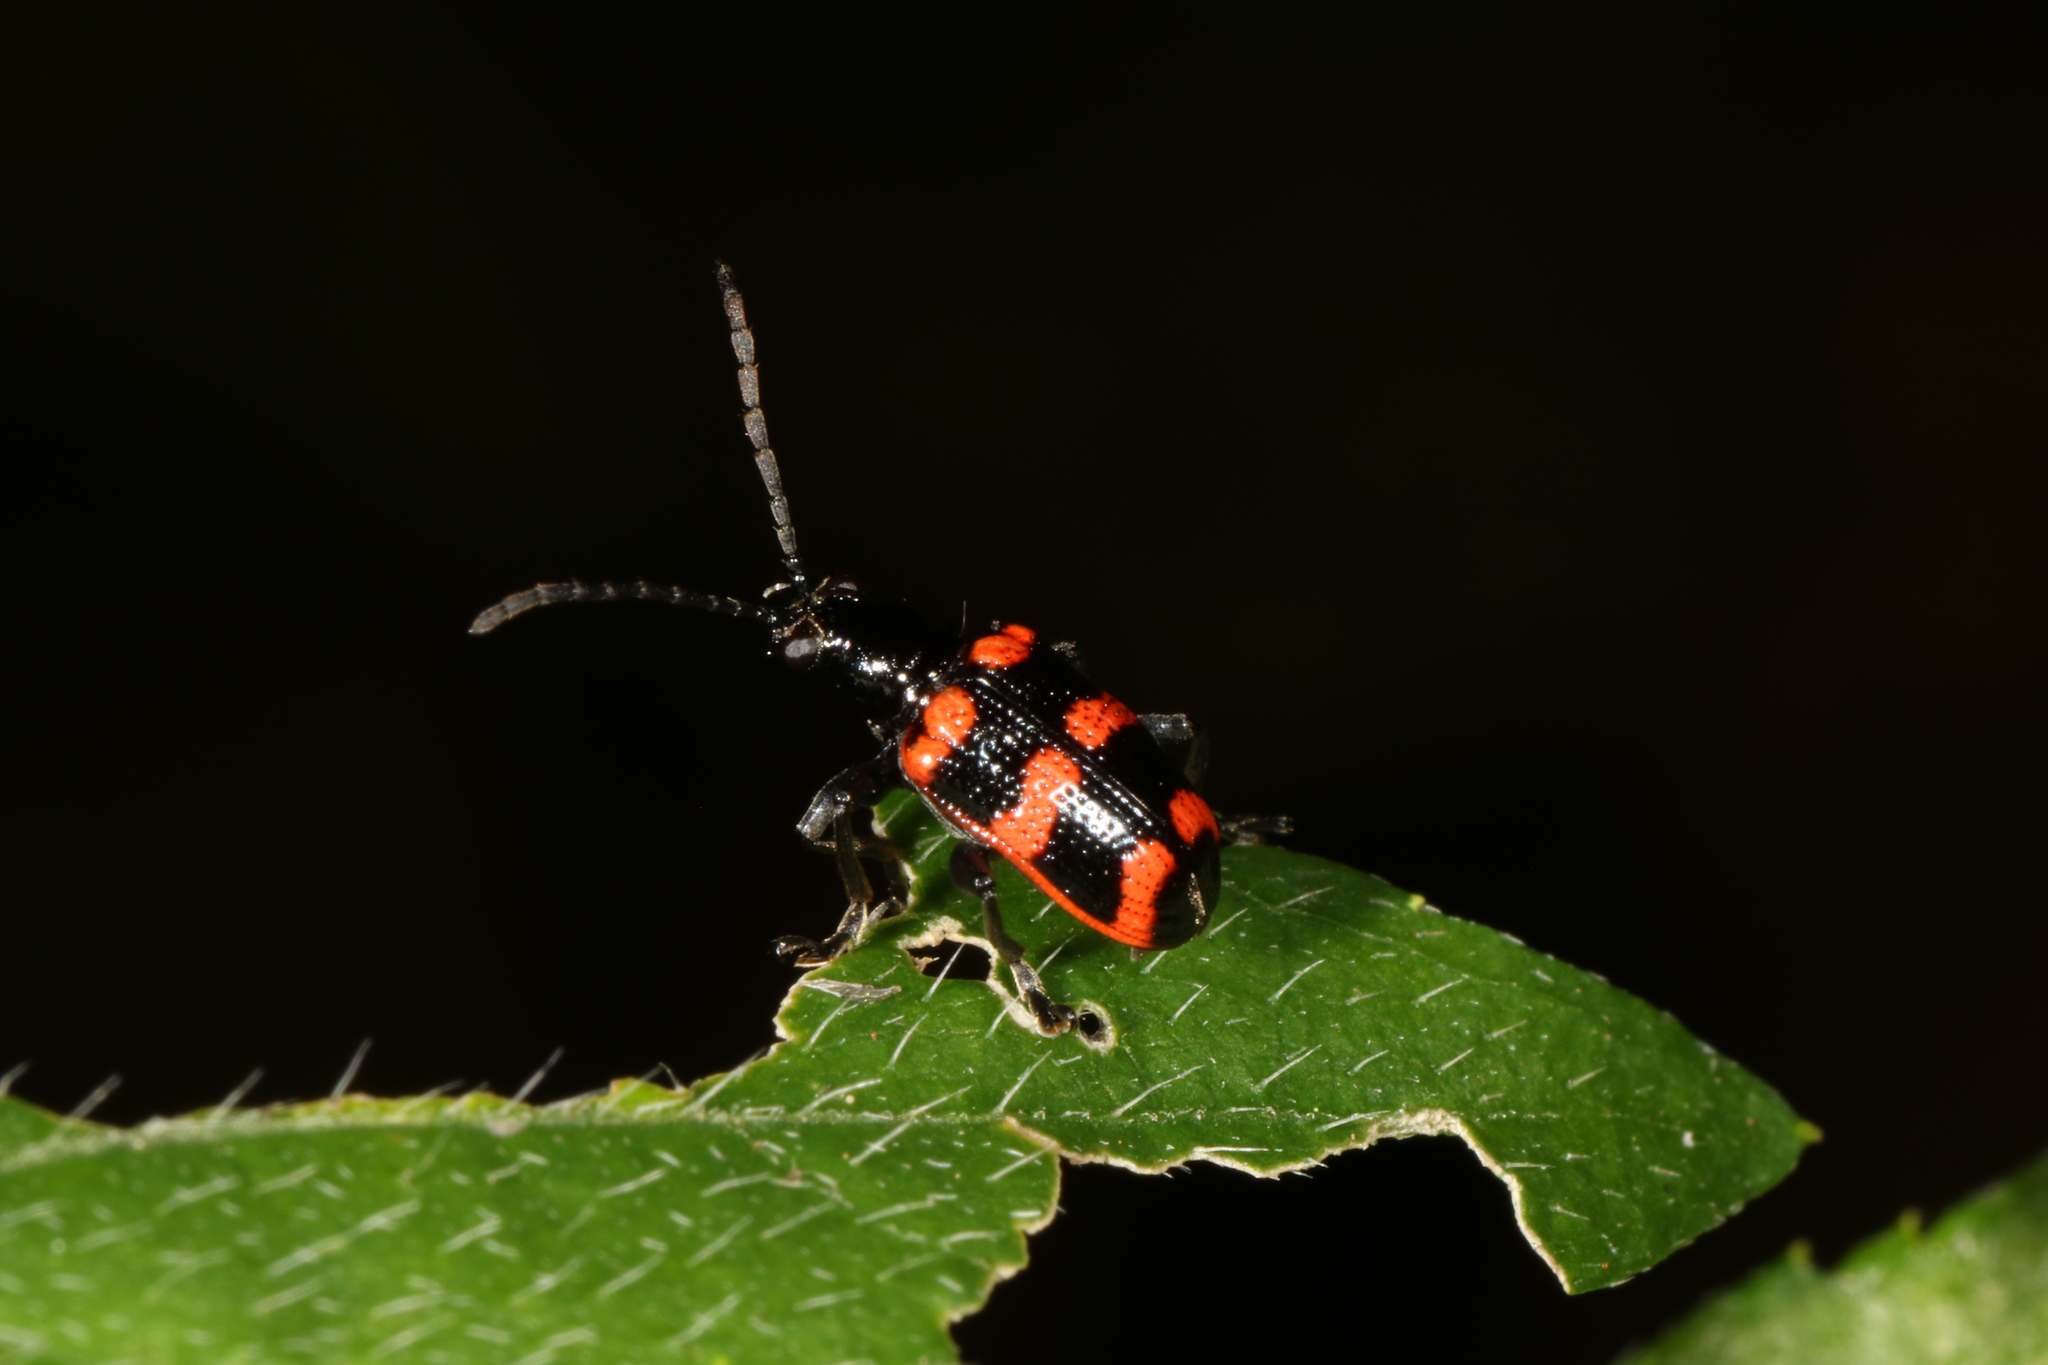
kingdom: Animalia
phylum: Arthropoda
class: Insecta
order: Coleoptera
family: Chrysomelidae
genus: Neolema
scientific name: Neolema
